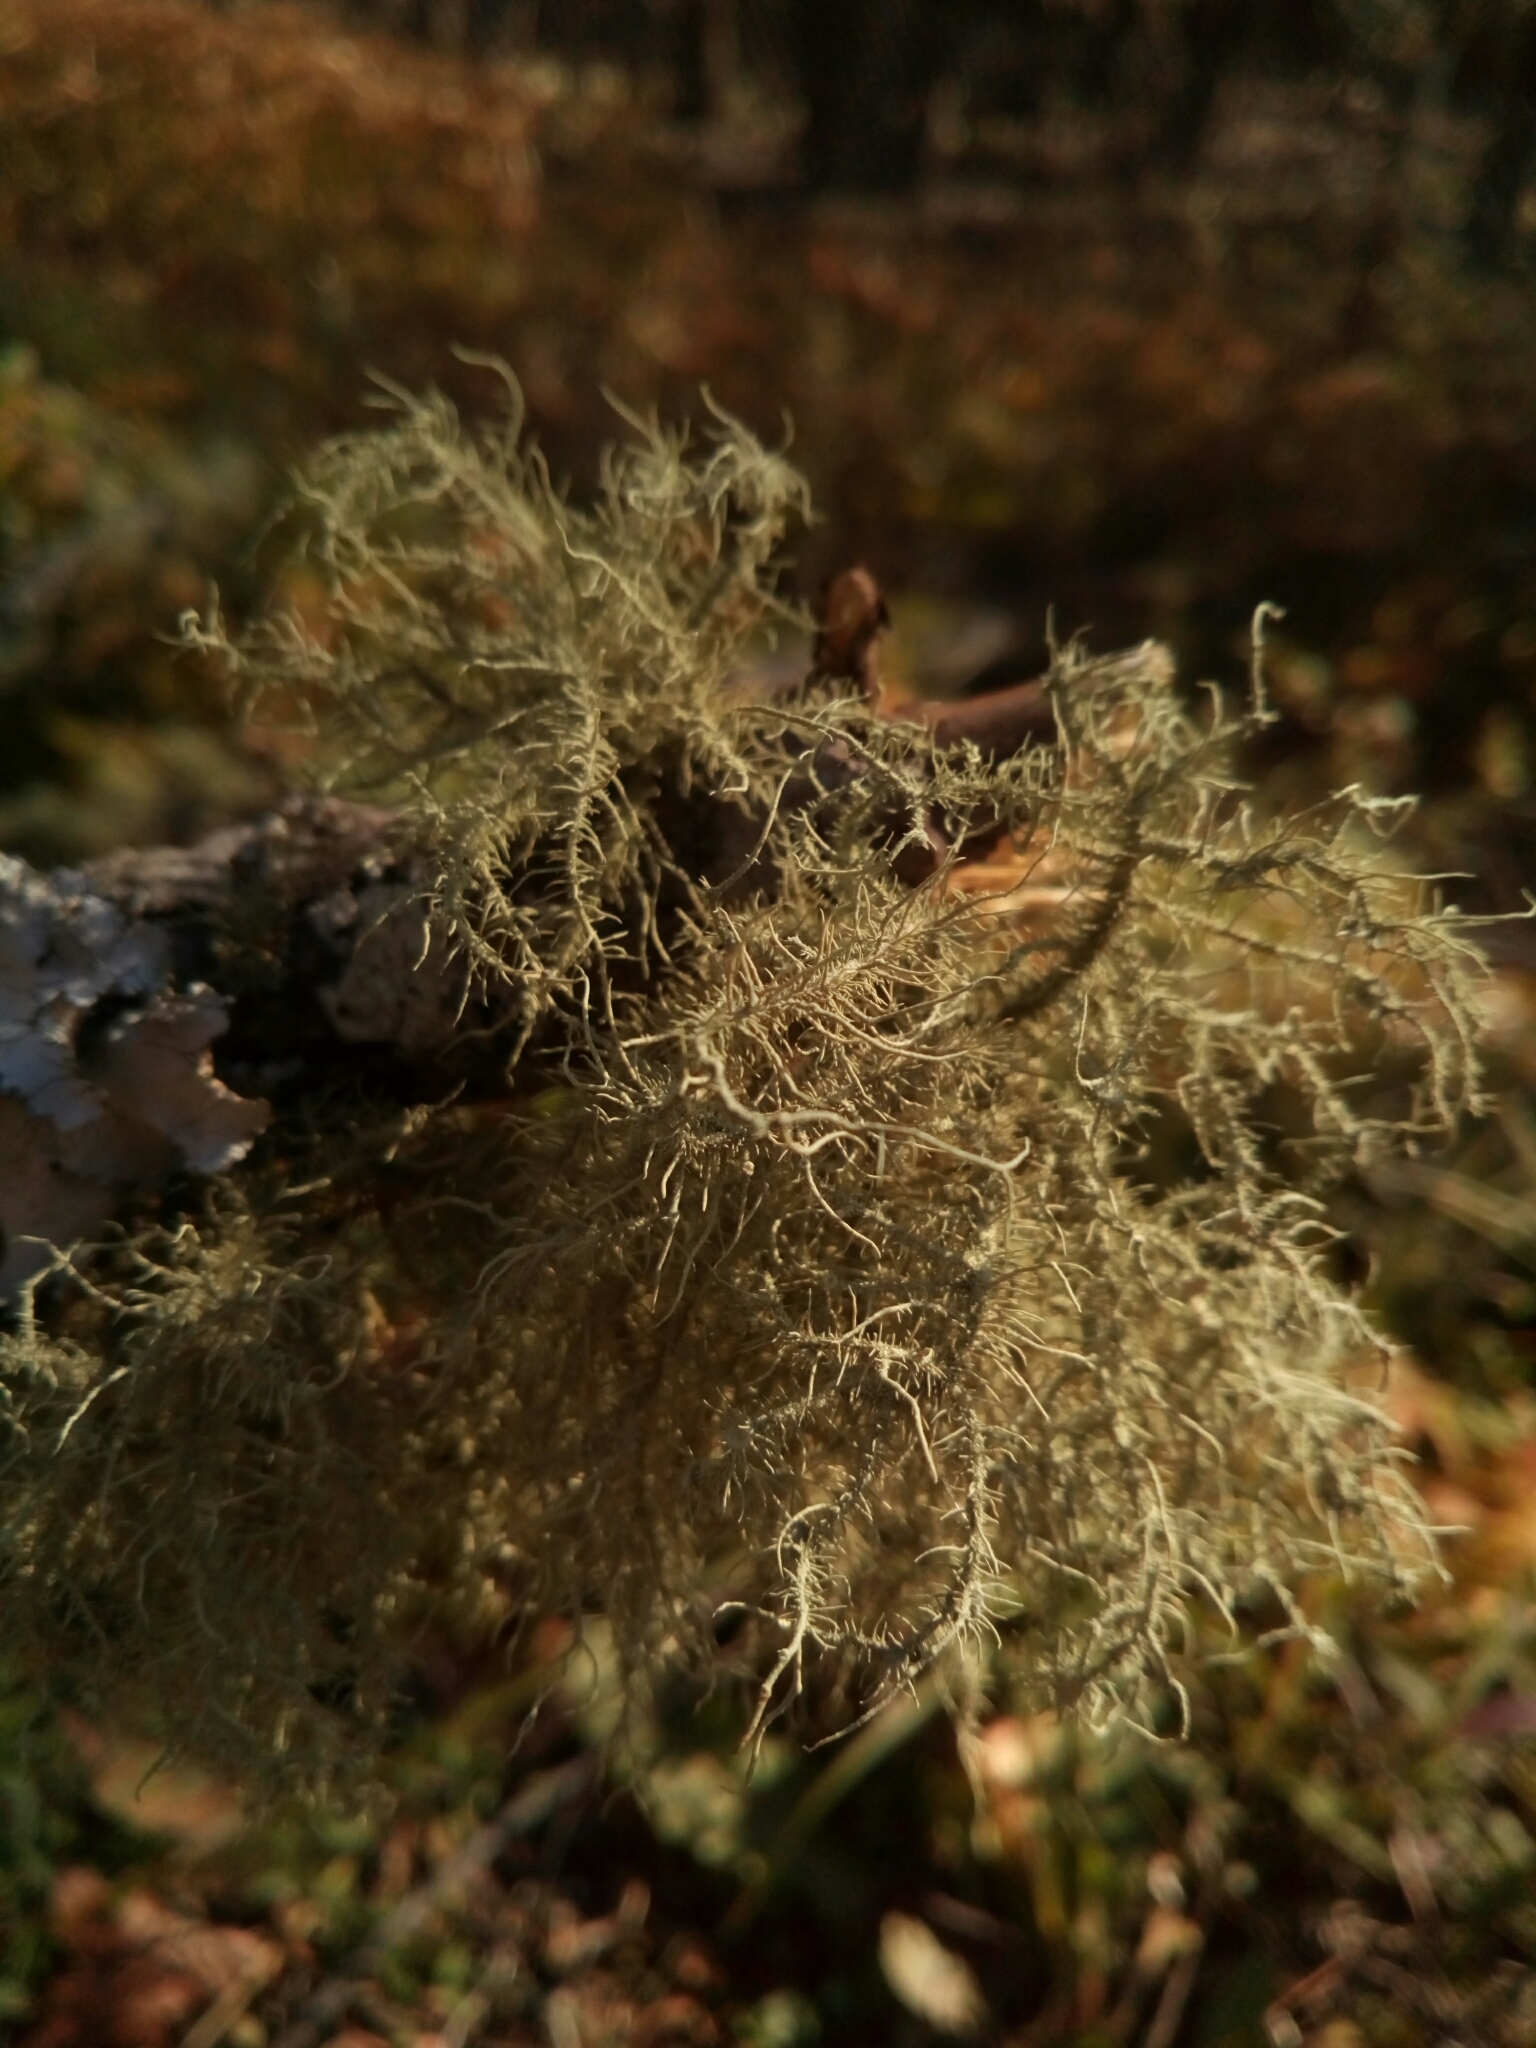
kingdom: Fungi
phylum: Ascomycota
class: Lecanoromycetes
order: Lecanorales
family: Parmeliaceae
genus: Usnea
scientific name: Usnea strigosa
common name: Bushy beard lichen
